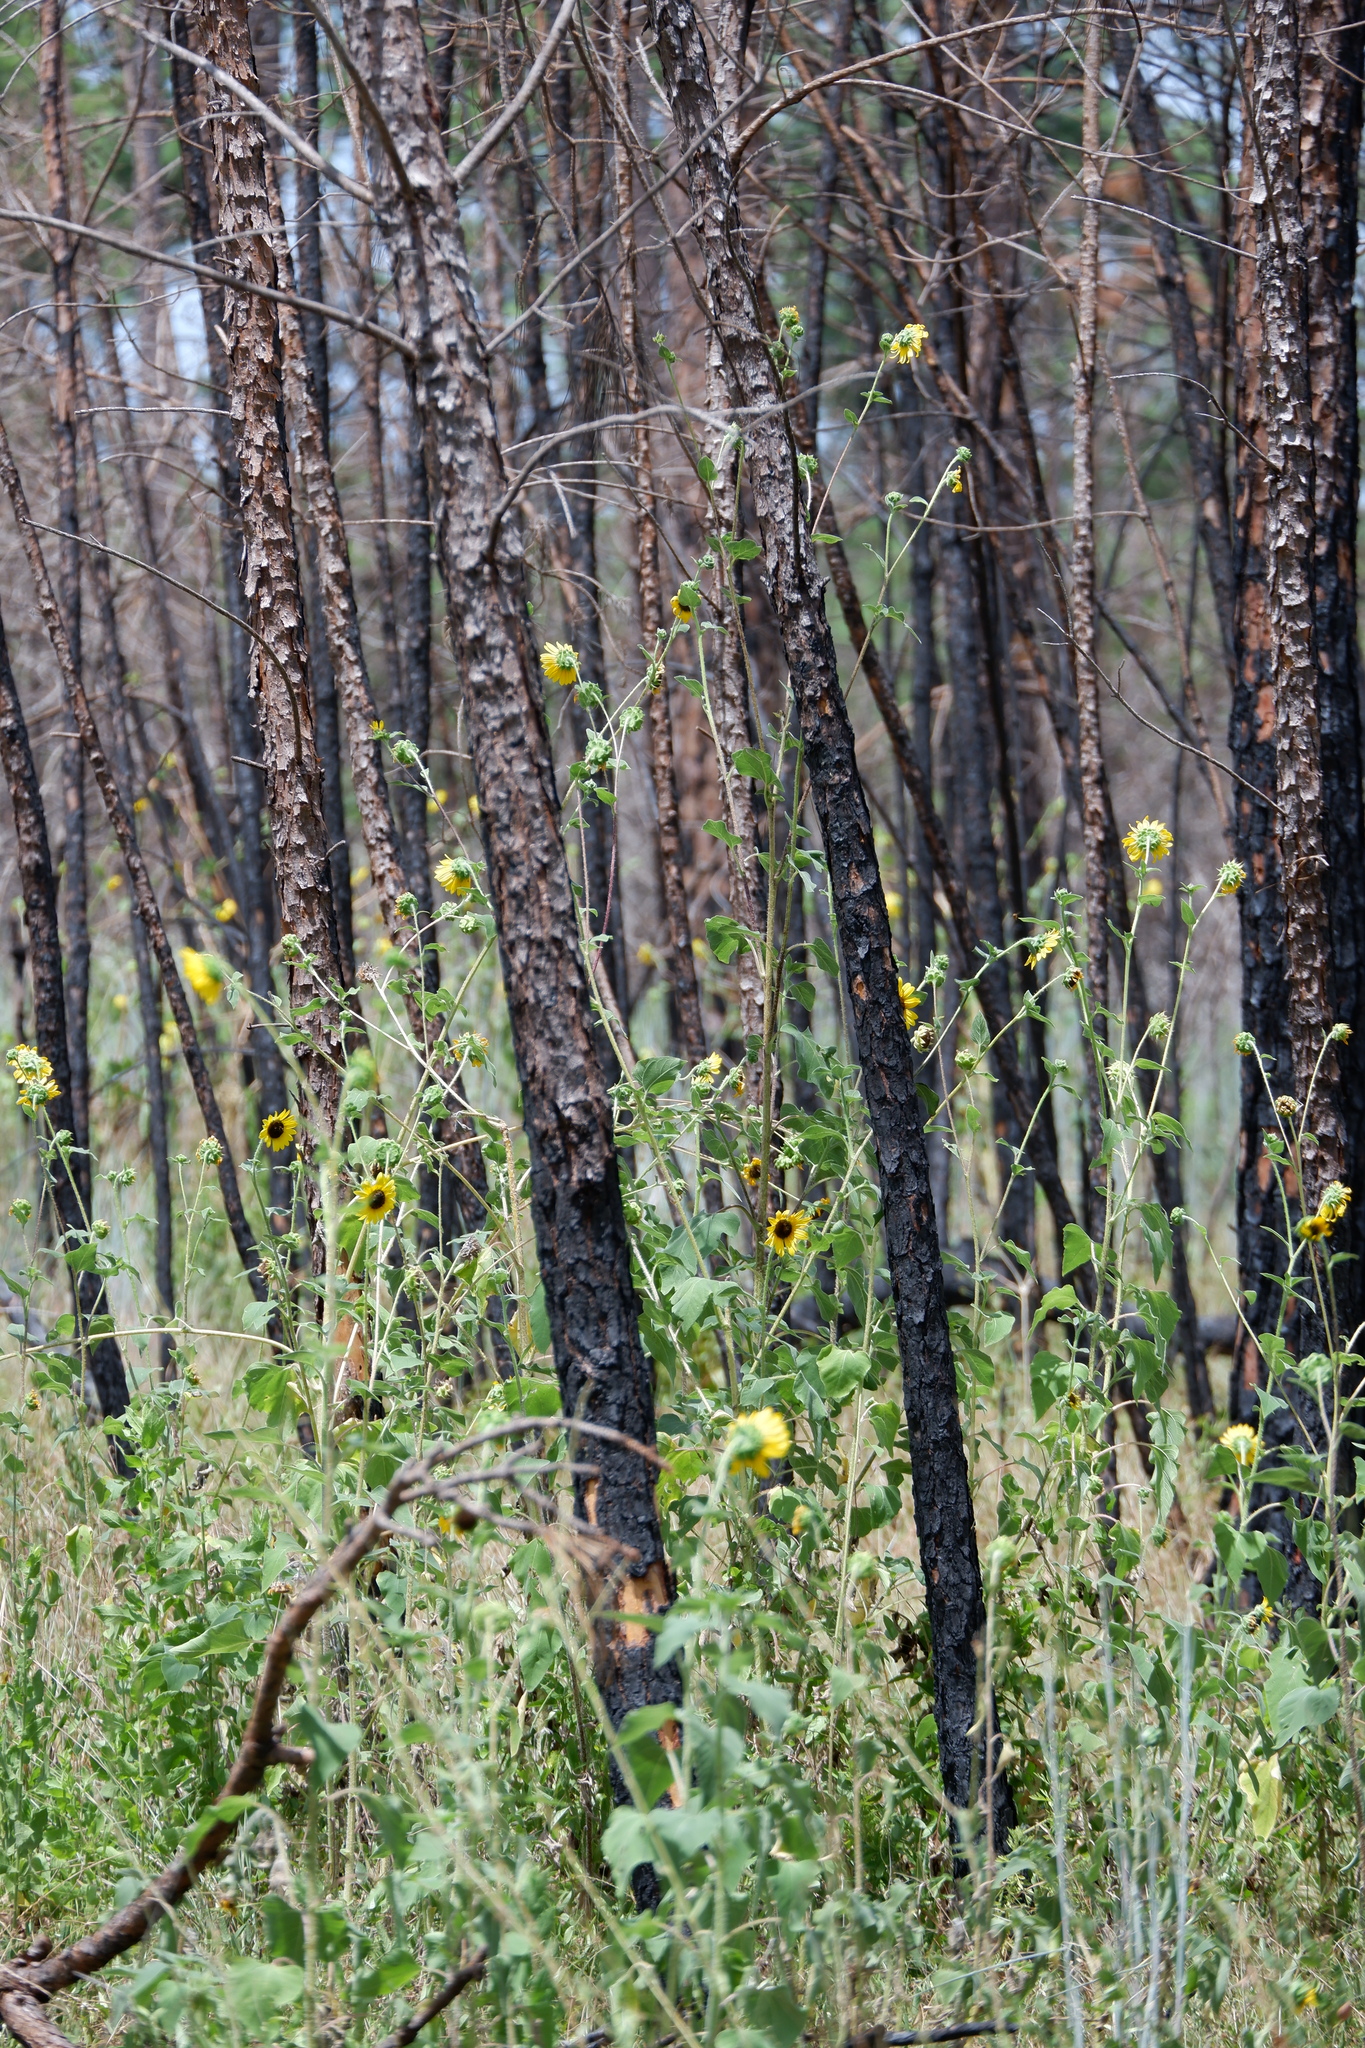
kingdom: Plantae
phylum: Tracheophyta
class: Magnoliopsida
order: Asterales
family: Asteraceae
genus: Helianthus
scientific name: Helianthus annuus
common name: Sunflower
